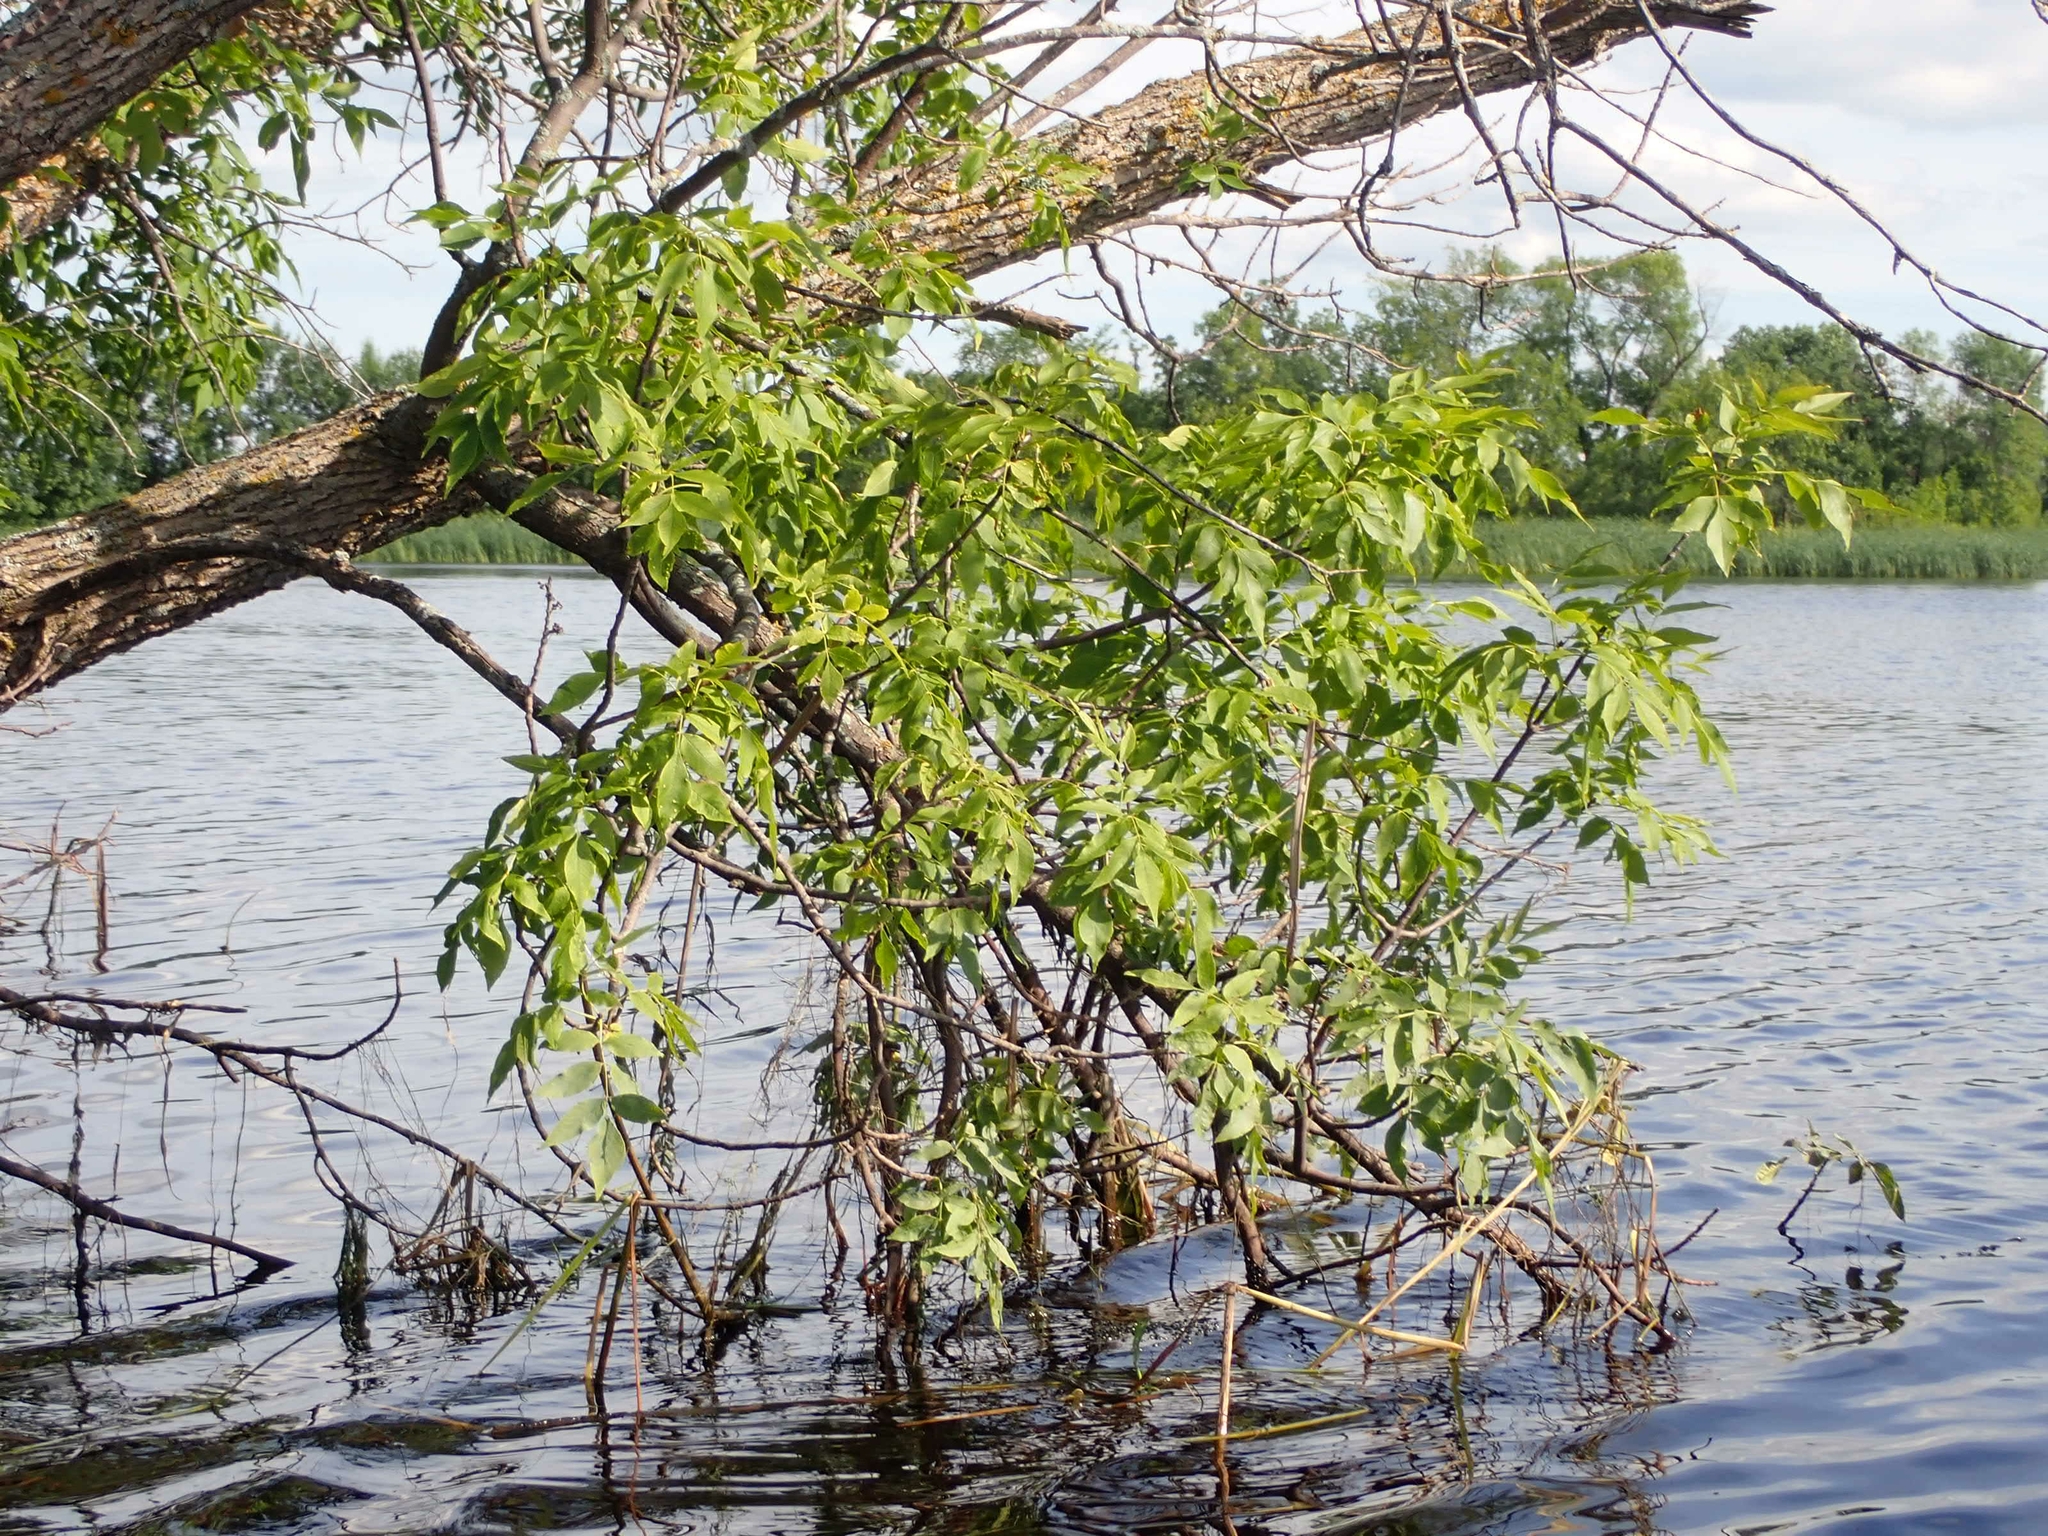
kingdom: Plantae
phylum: Tracheophyta
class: Magnoliopsida
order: Sapindales
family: Sapindaceae
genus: Acer
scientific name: Acer negundo
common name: Ashleaf maple
